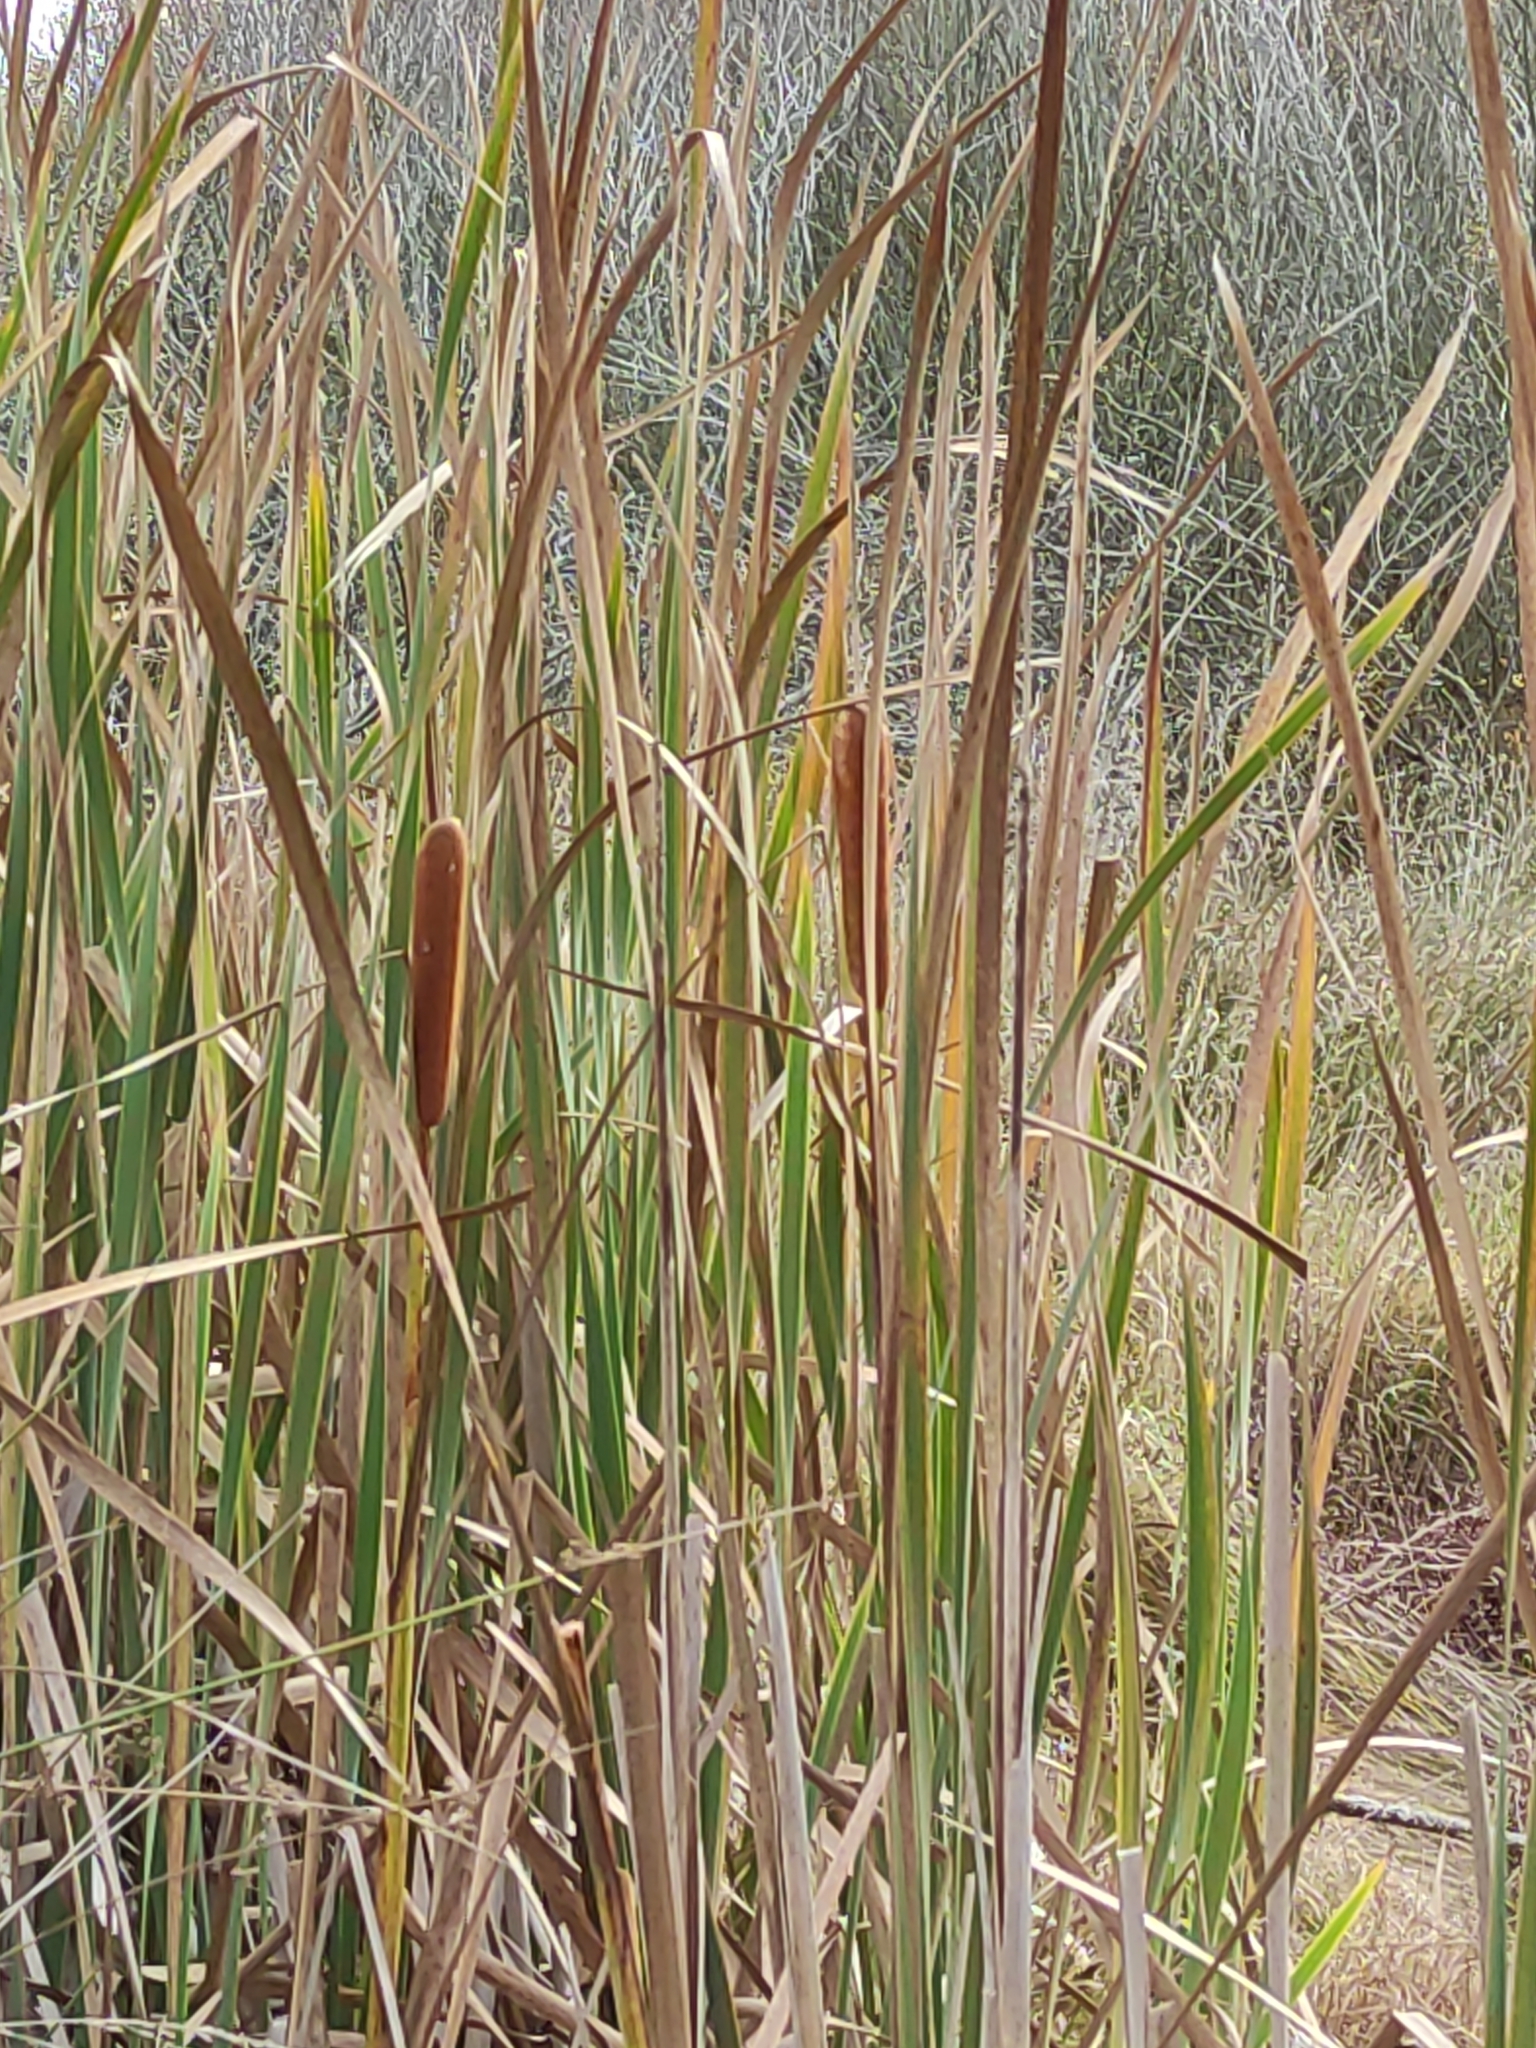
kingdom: Plantae
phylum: Tracheophyta
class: Liliopsida
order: Poales
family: Typhaceae
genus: Typha
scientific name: Typha orientalis
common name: Bullrush
